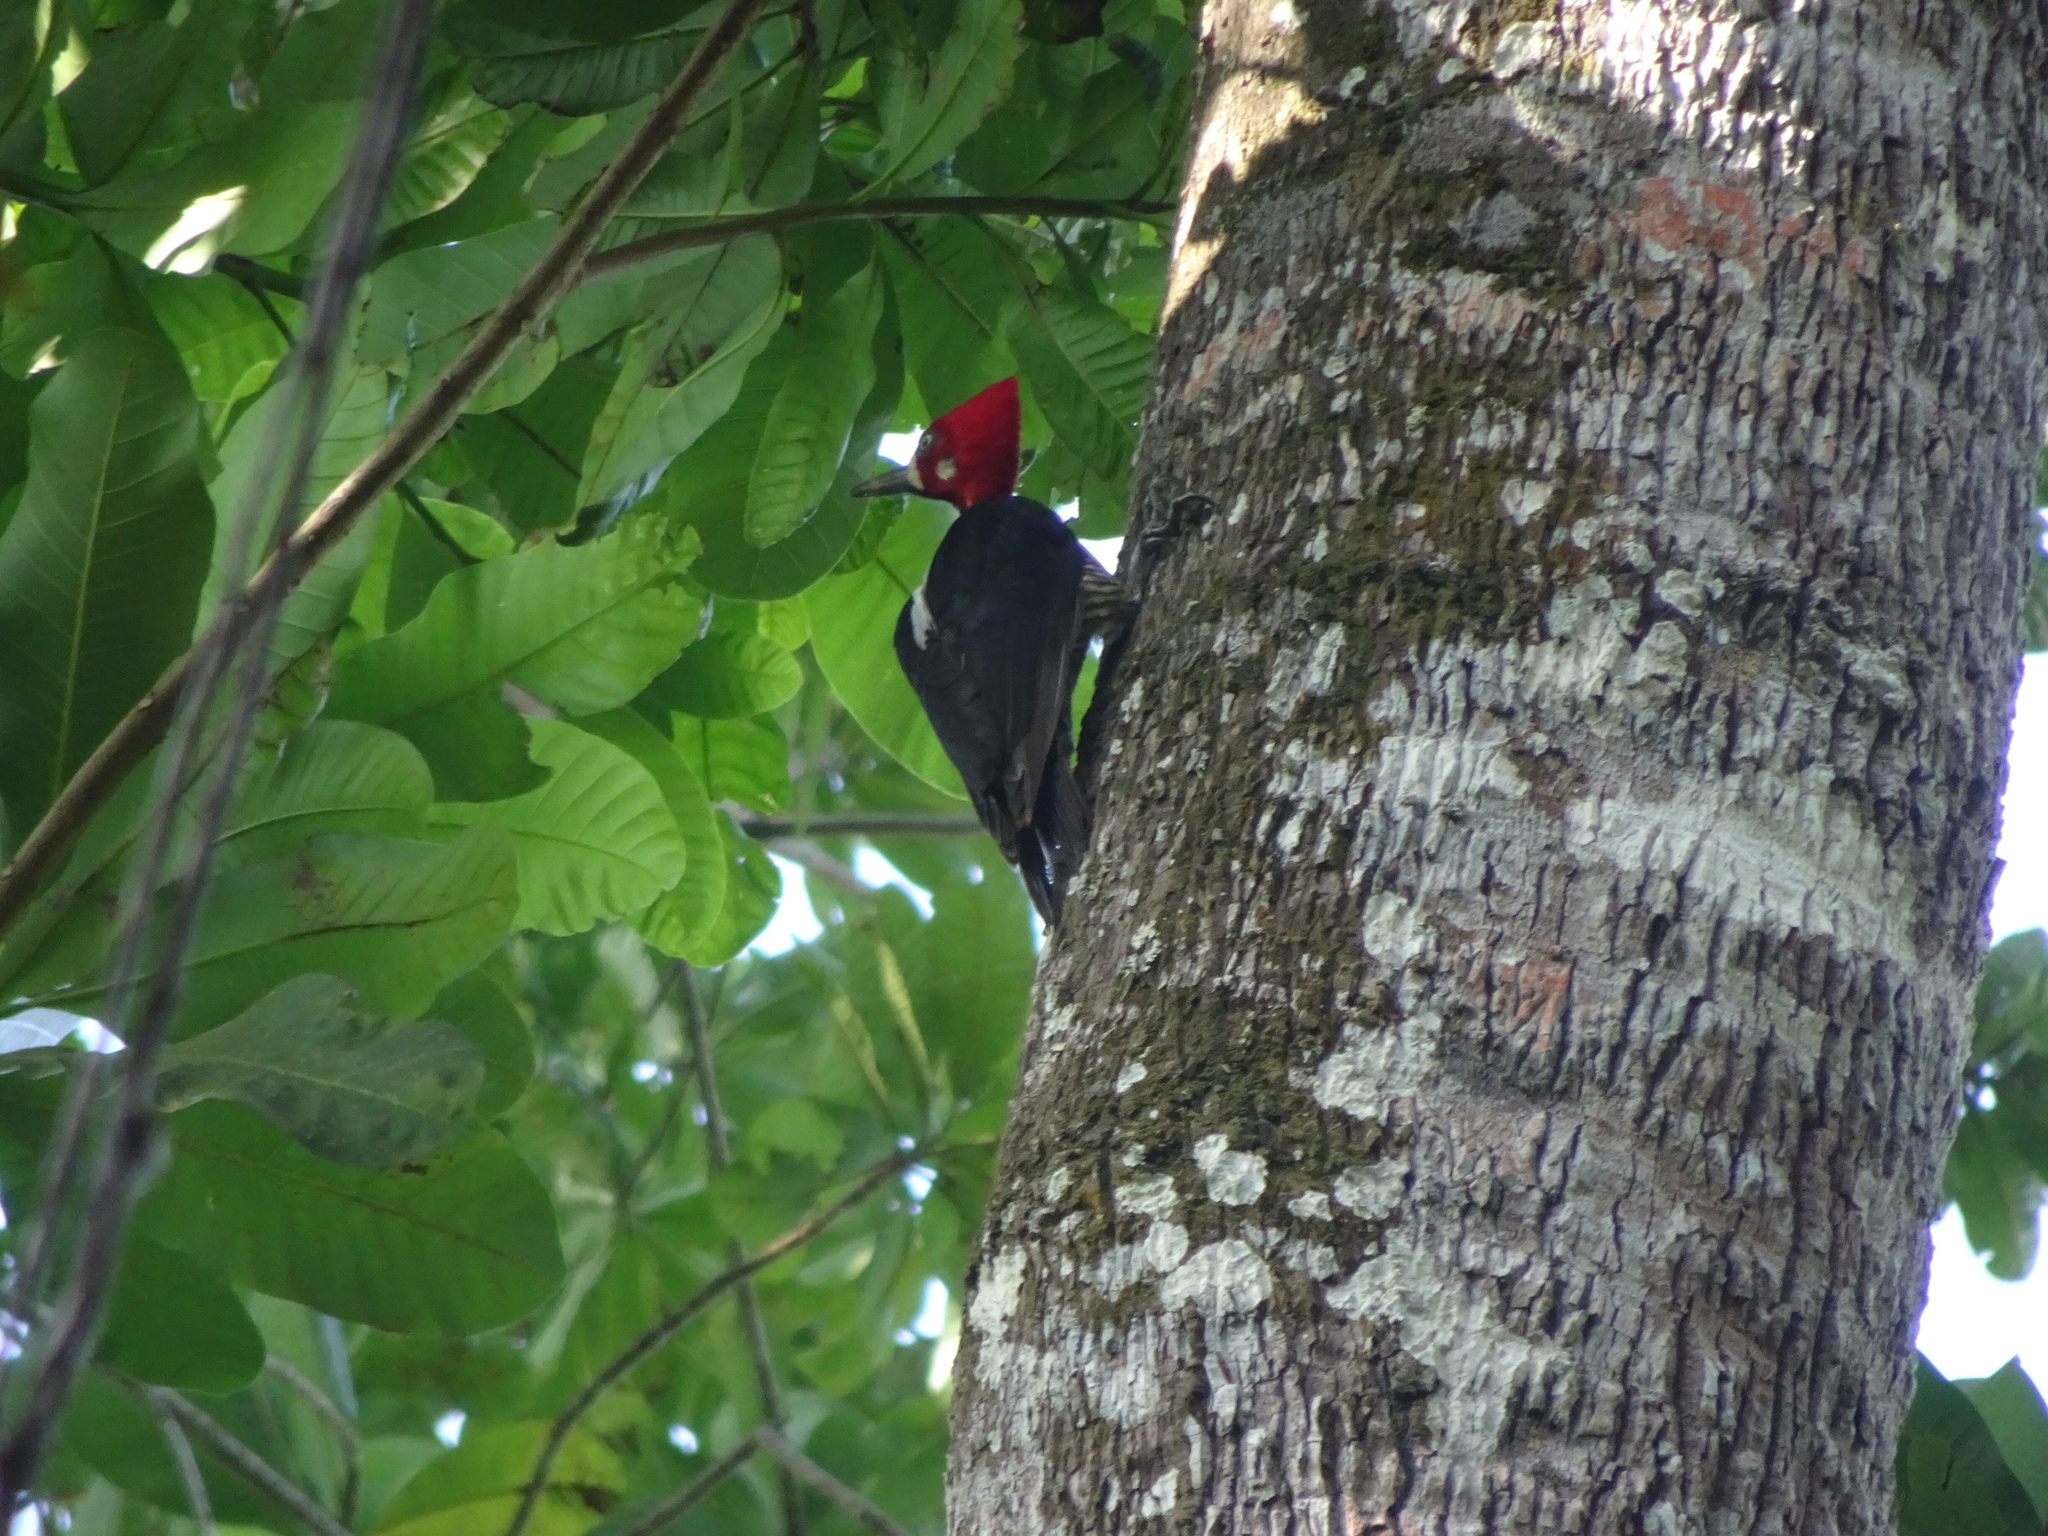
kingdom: Animalia
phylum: Chordata
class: Aves
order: Piciformes
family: Picidae
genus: Campephilus
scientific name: Campephilus melanoleucos
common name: Crimson-crested woodpecker
